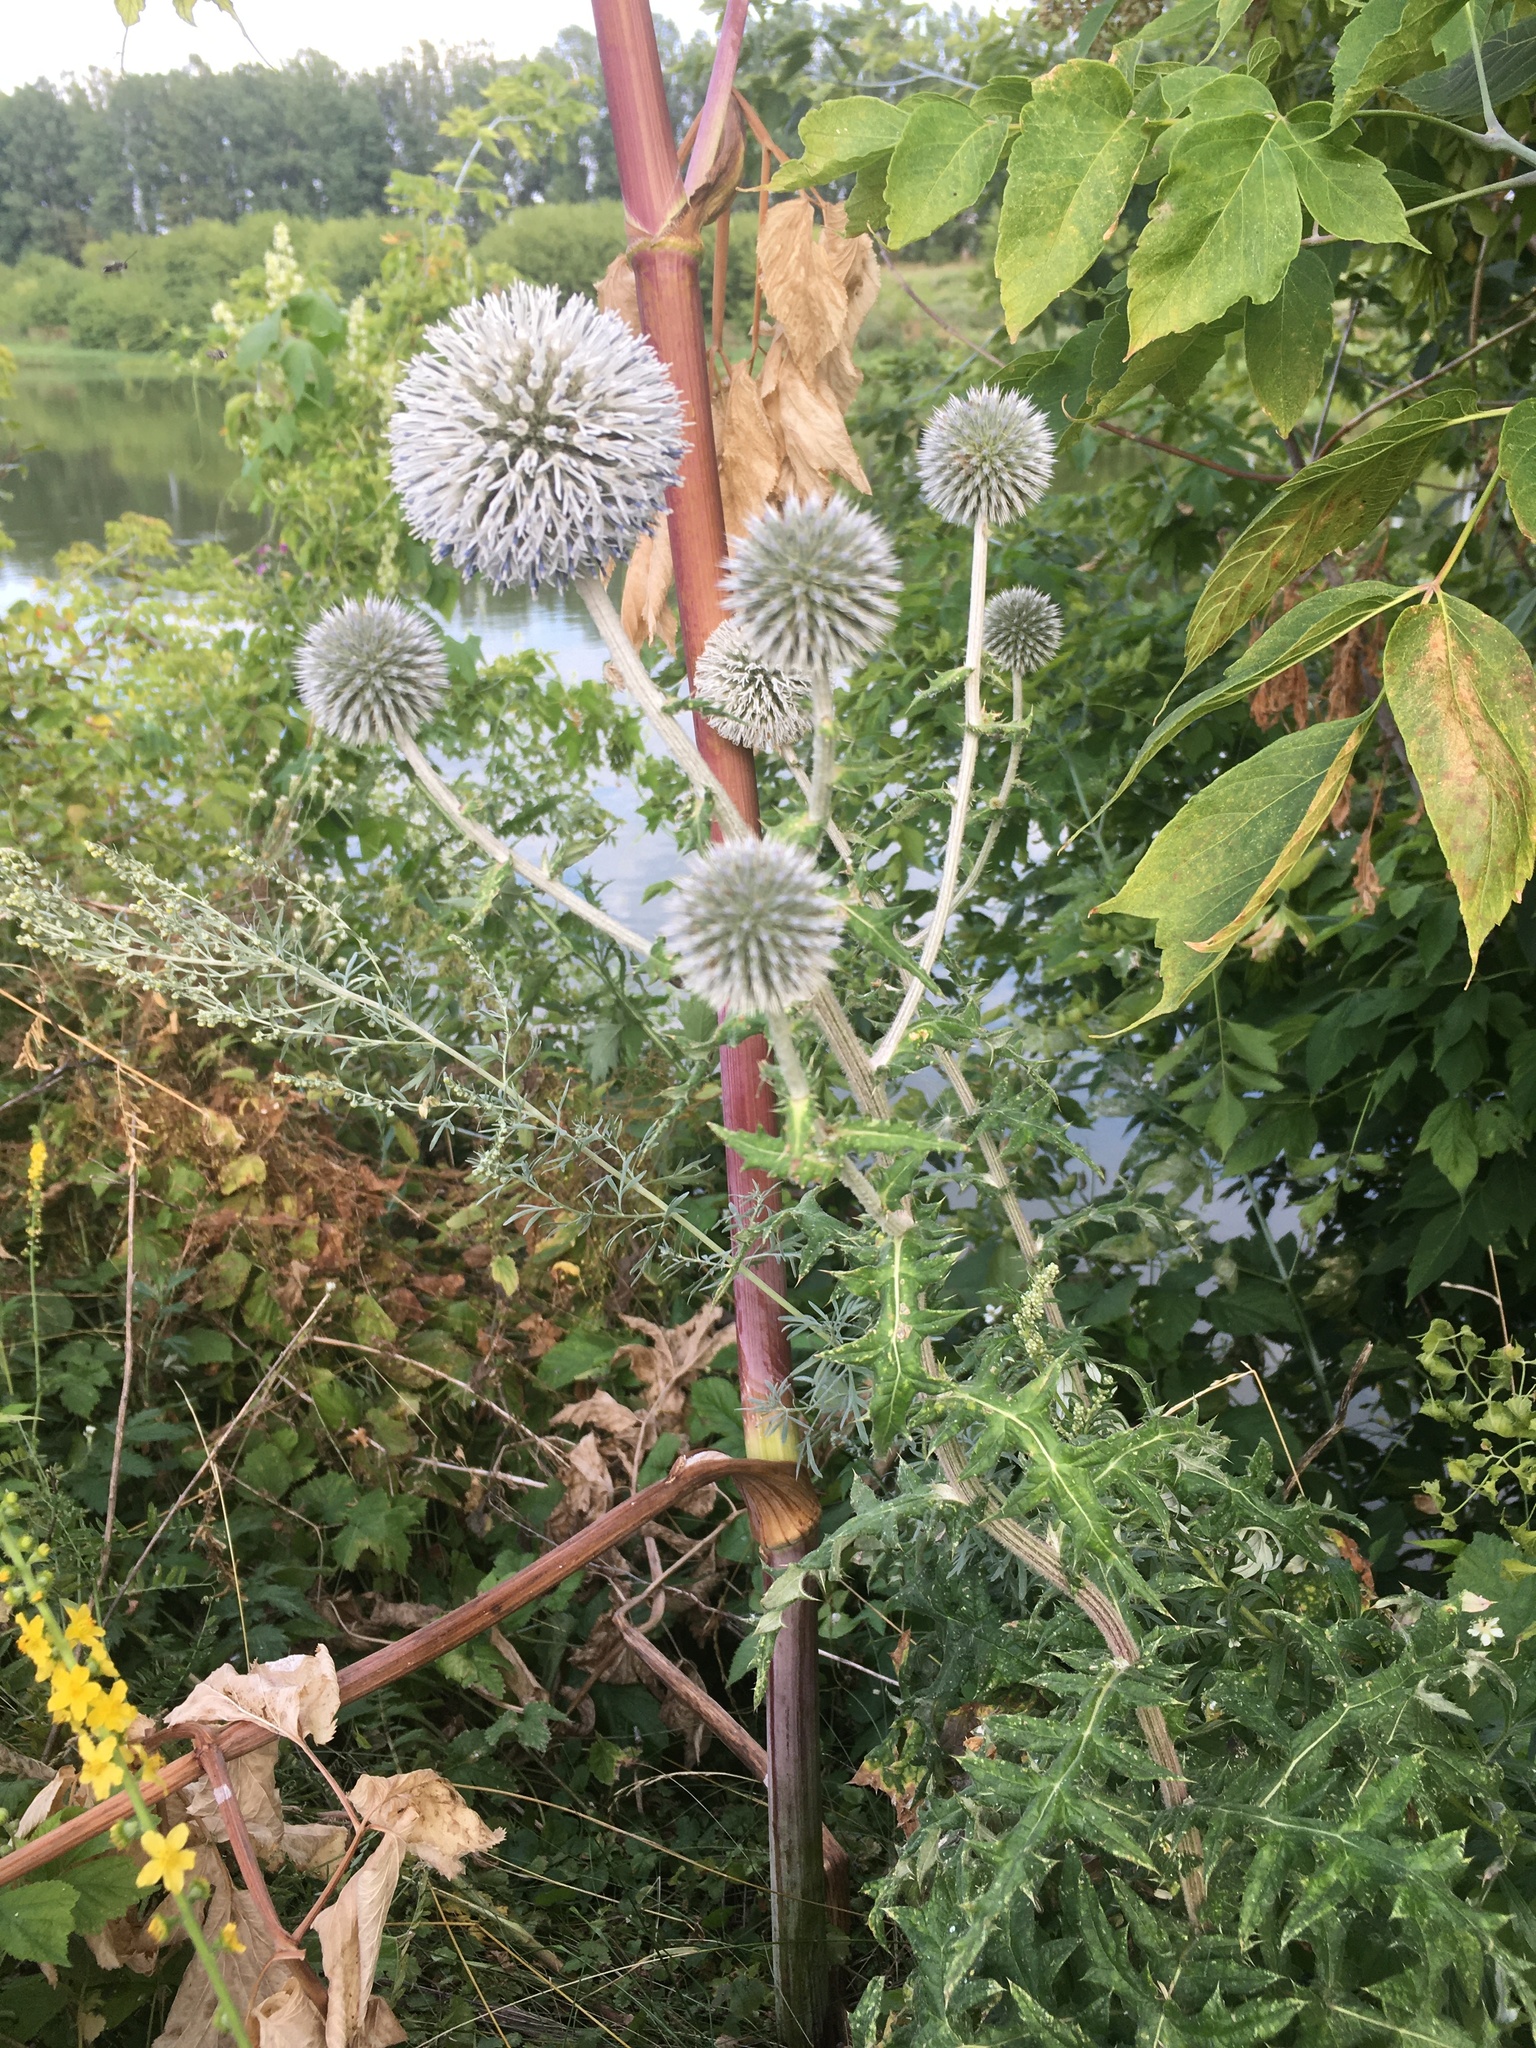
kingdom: Plantae
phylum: Tracheophyta
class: Magnoliopsida
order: Asterales
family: Asteraceae
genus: Echinops
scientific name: Echinops sphaerocephalus
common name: Glandular globe-thistle
